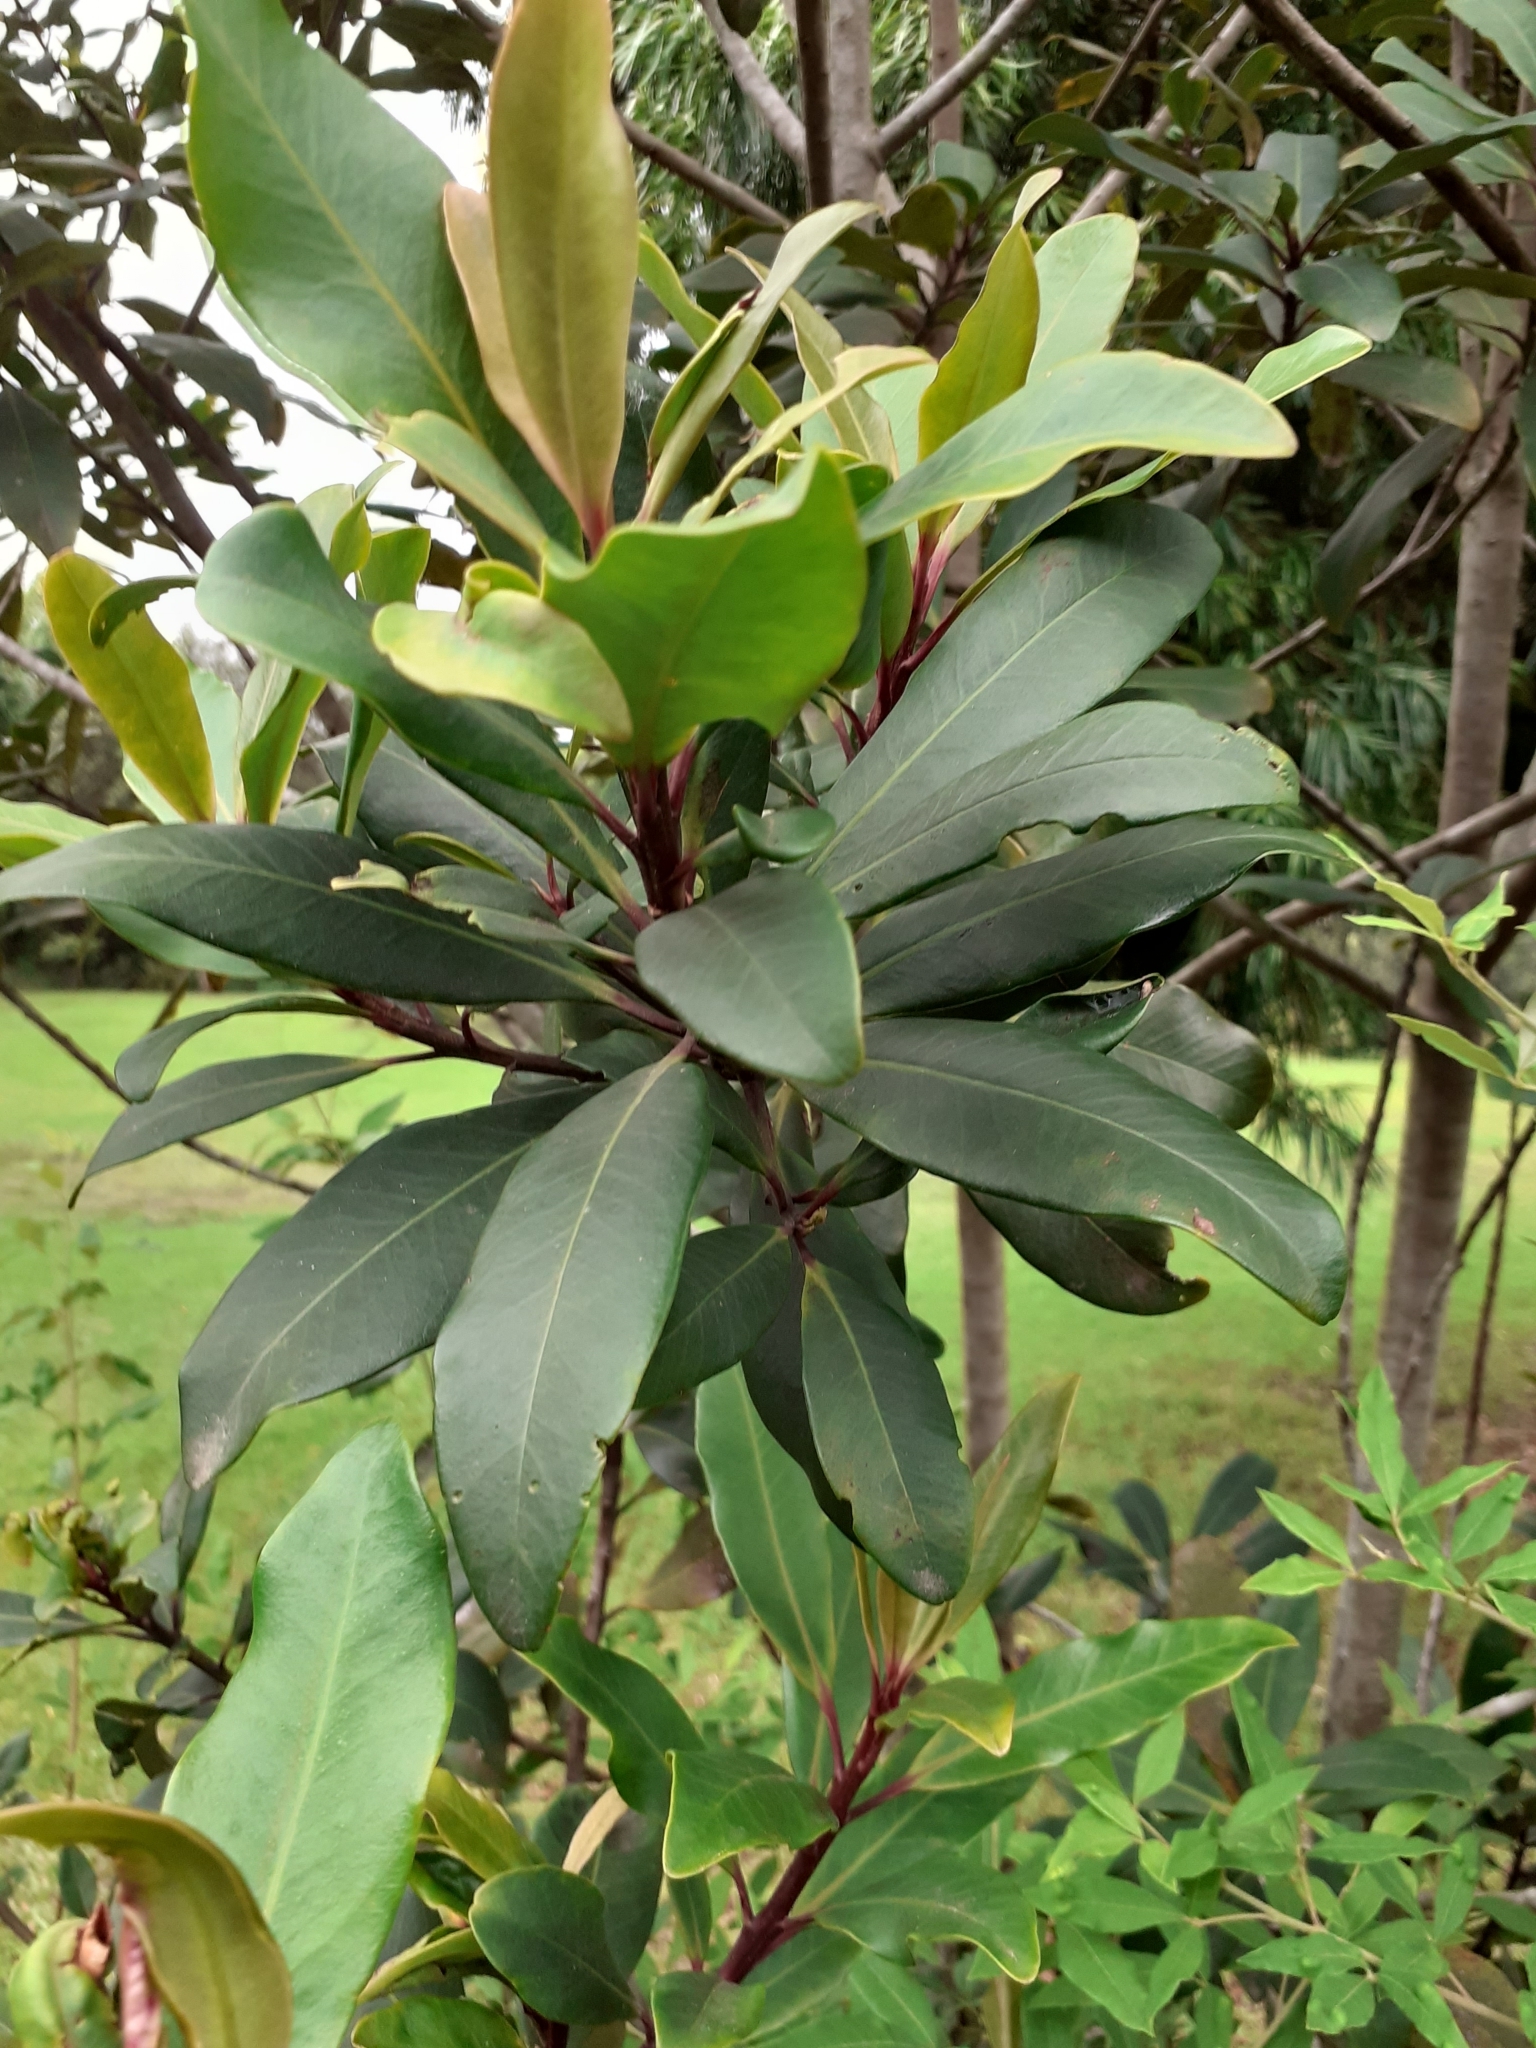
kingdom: Plantae
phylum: Tracheophyta
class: Magnoliopsida
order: Ericales
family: Primulaceae
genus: Myrsine
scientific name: Myrsine melanophloeos
